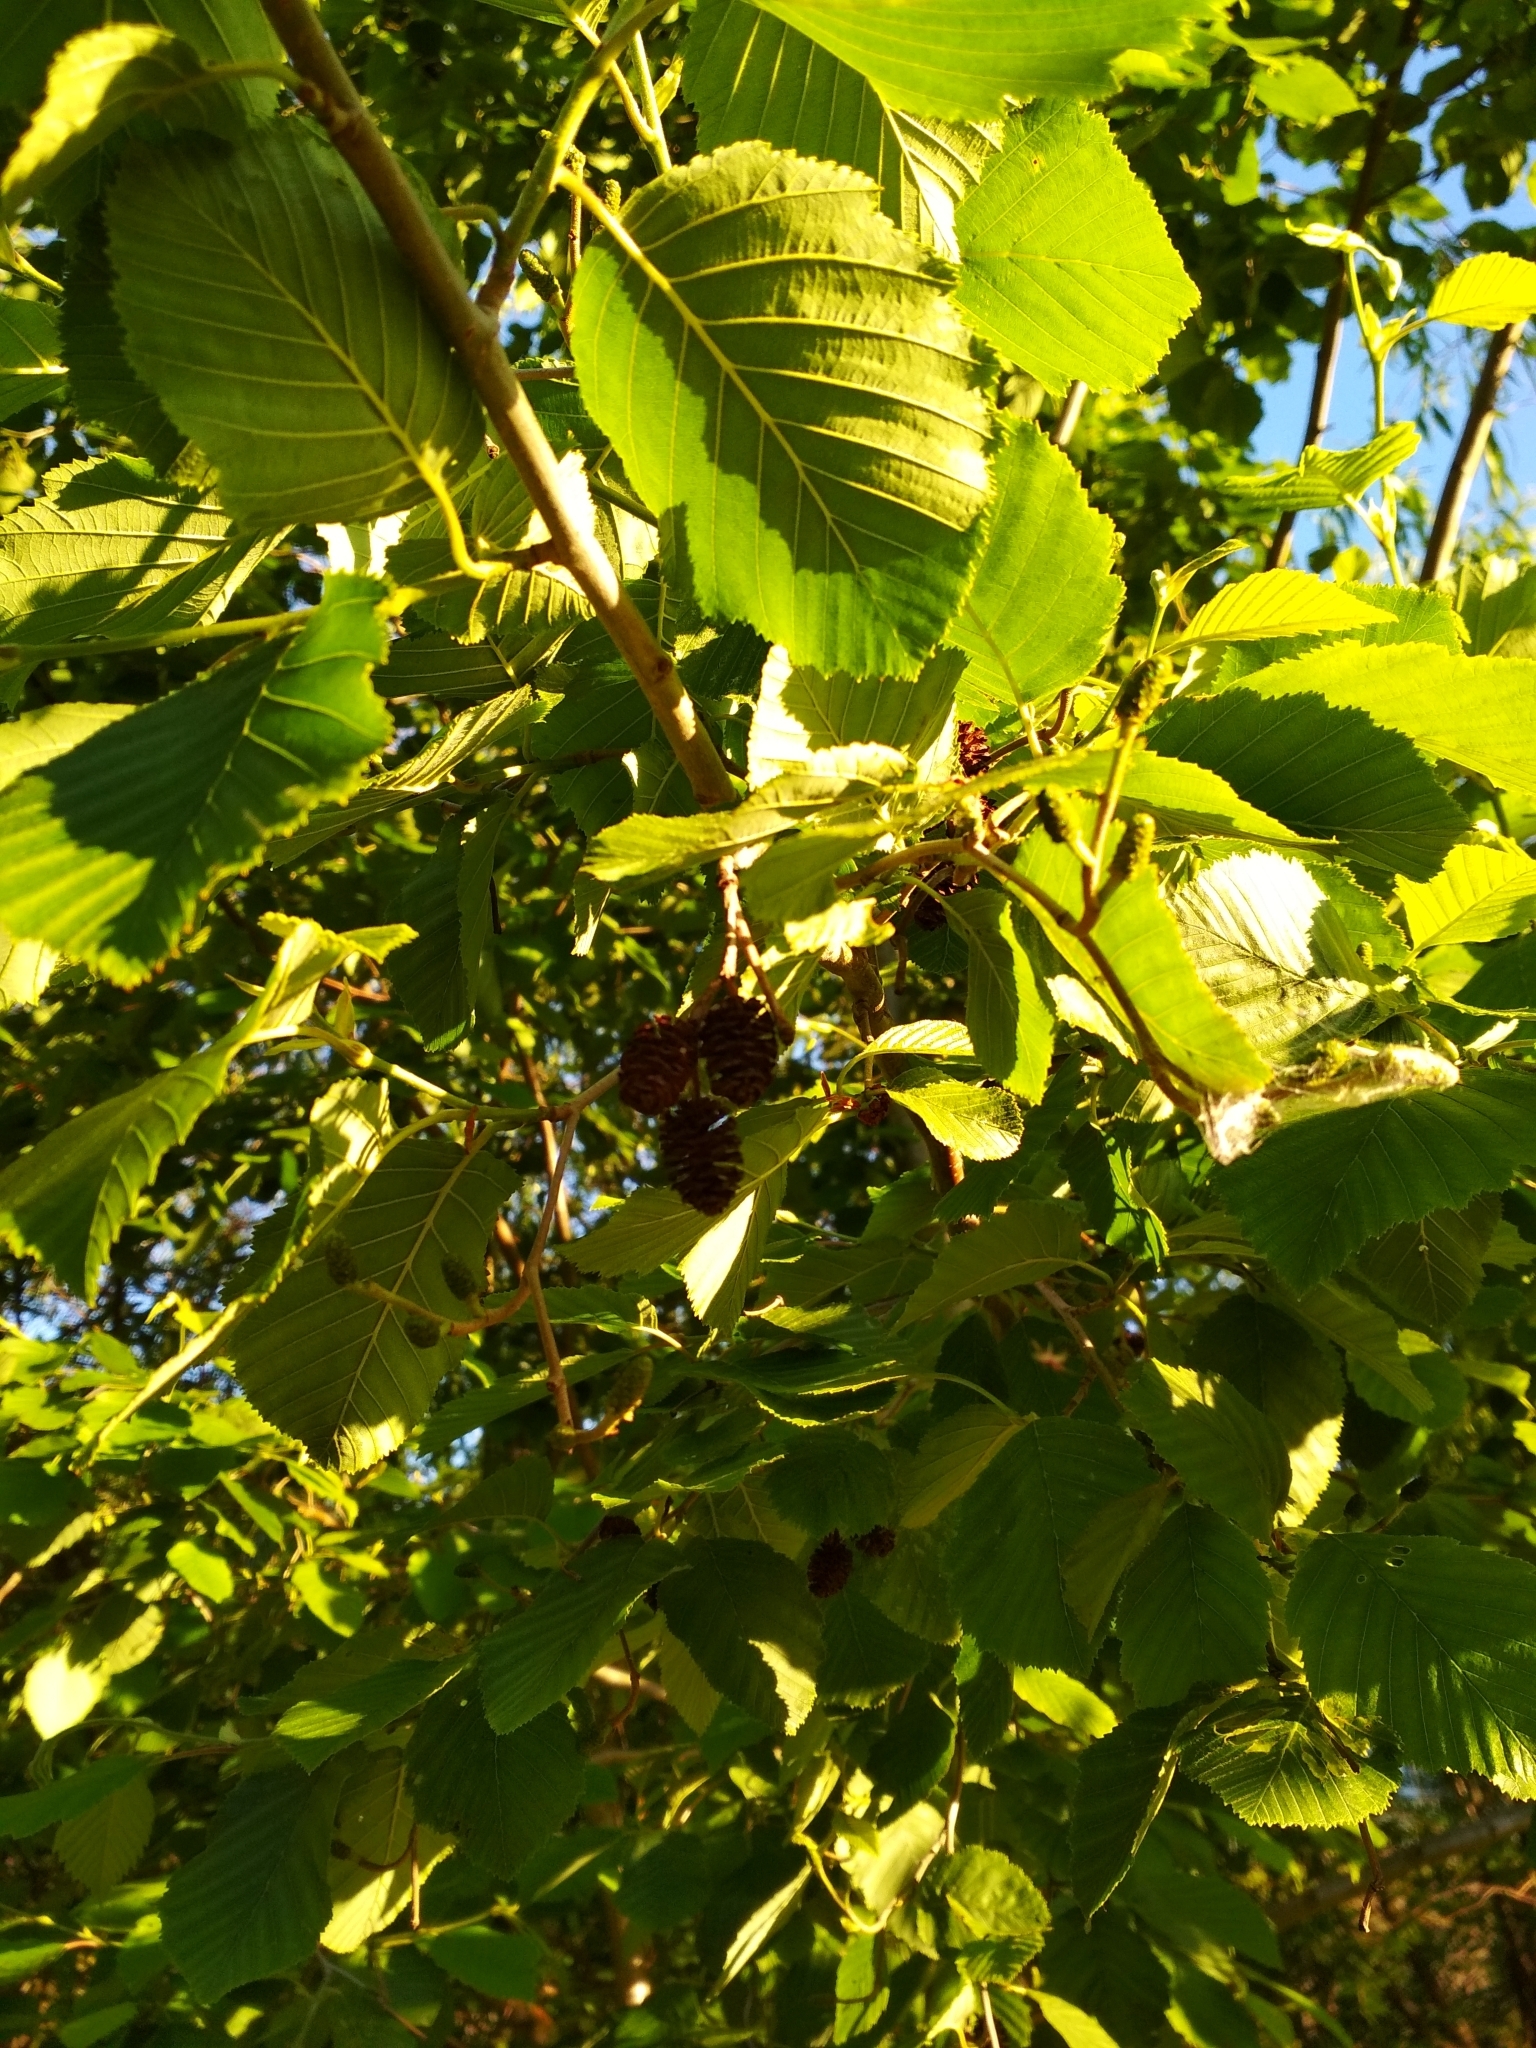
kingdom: Plantae
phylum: Tracheophyta
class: Magnoliopsida
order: Fagales
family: Betulaceae
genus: Alnus
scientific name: Alnus incana
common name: Grey alder
